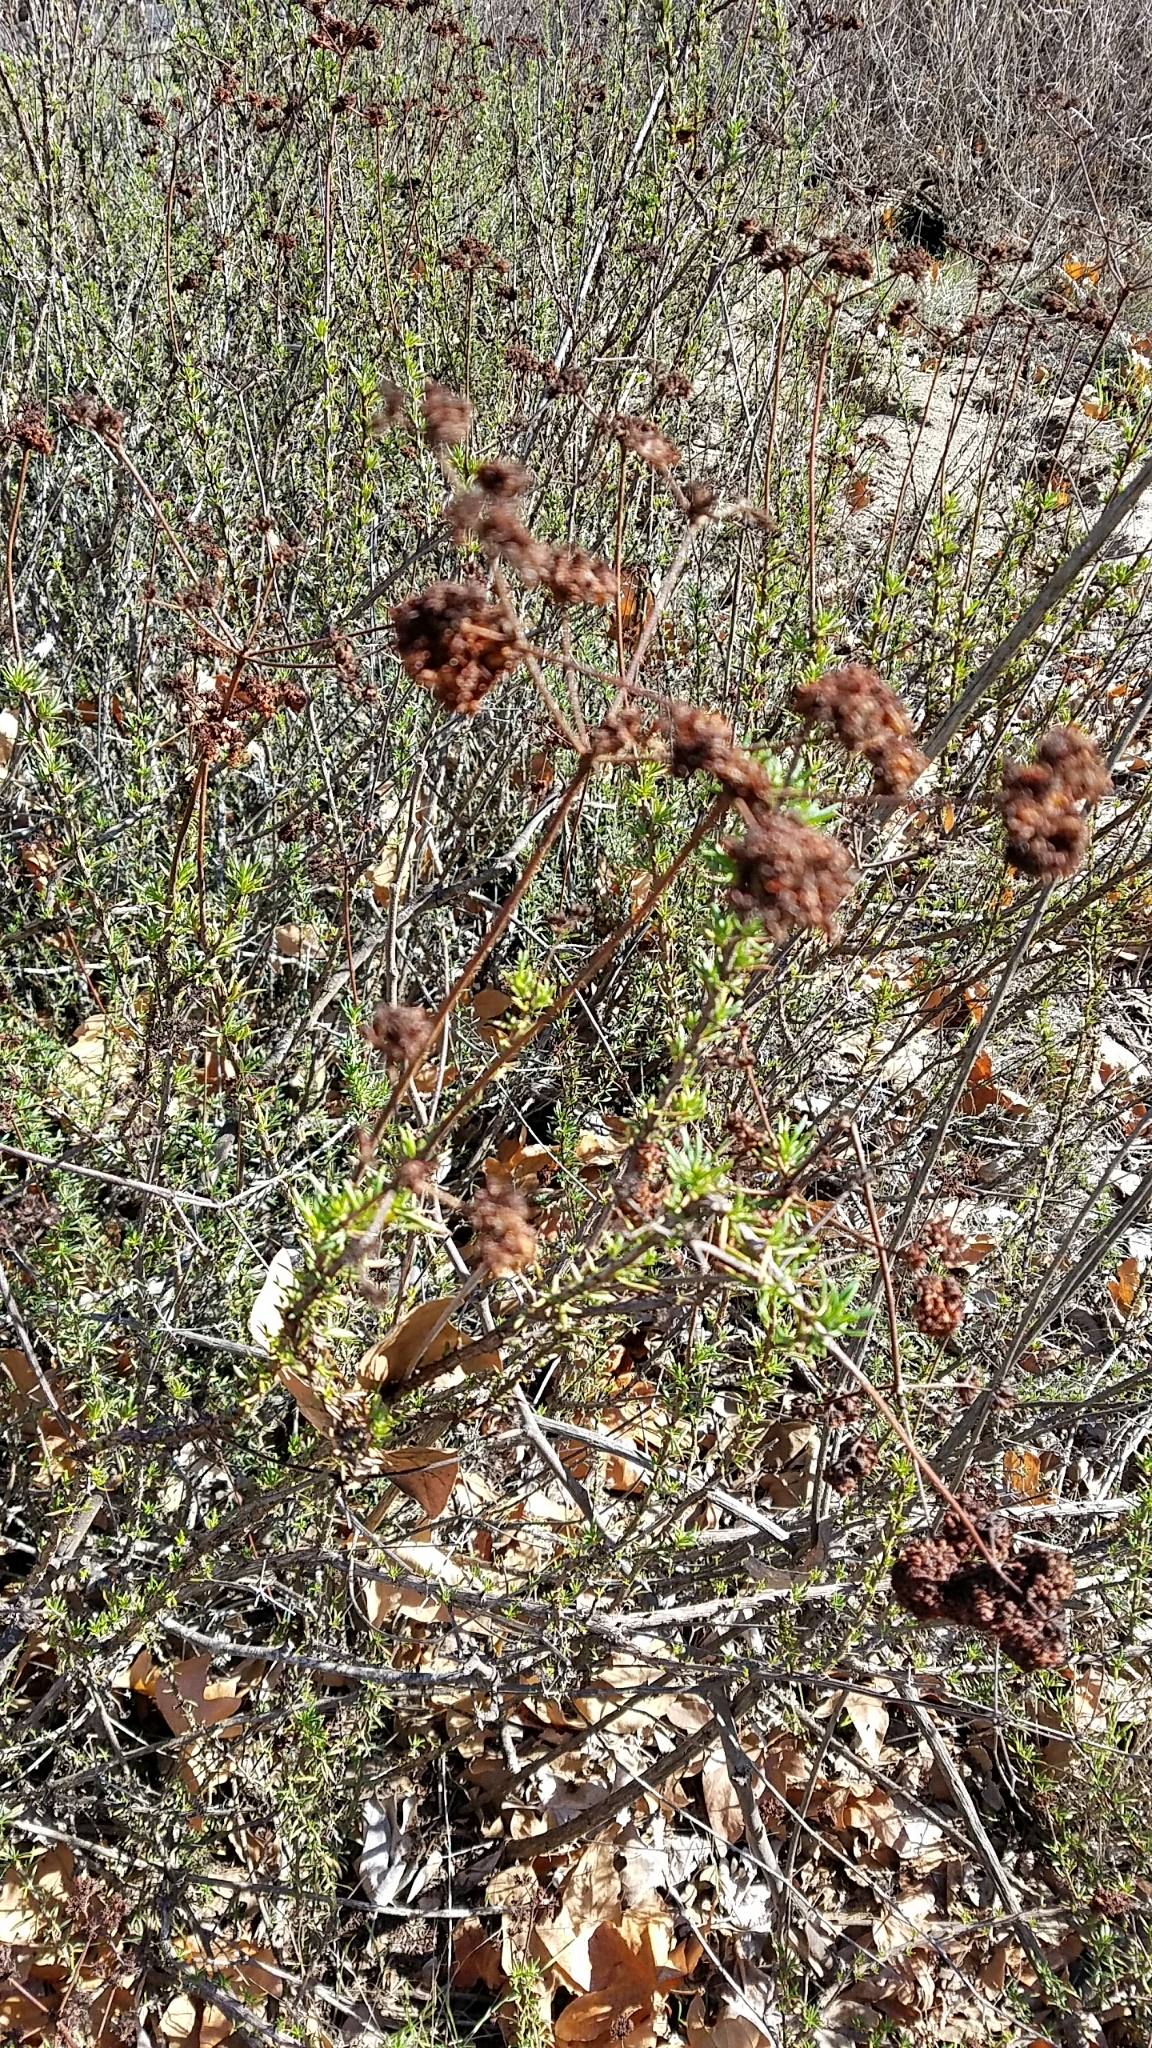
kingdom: Plantae
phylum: Tracheophyta
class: Magnoliopsida
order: Caryophyllales
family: Polygonaceae
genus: Eriogonum
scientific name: Eriogonum fasciculatum
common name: California wild buckwheat
